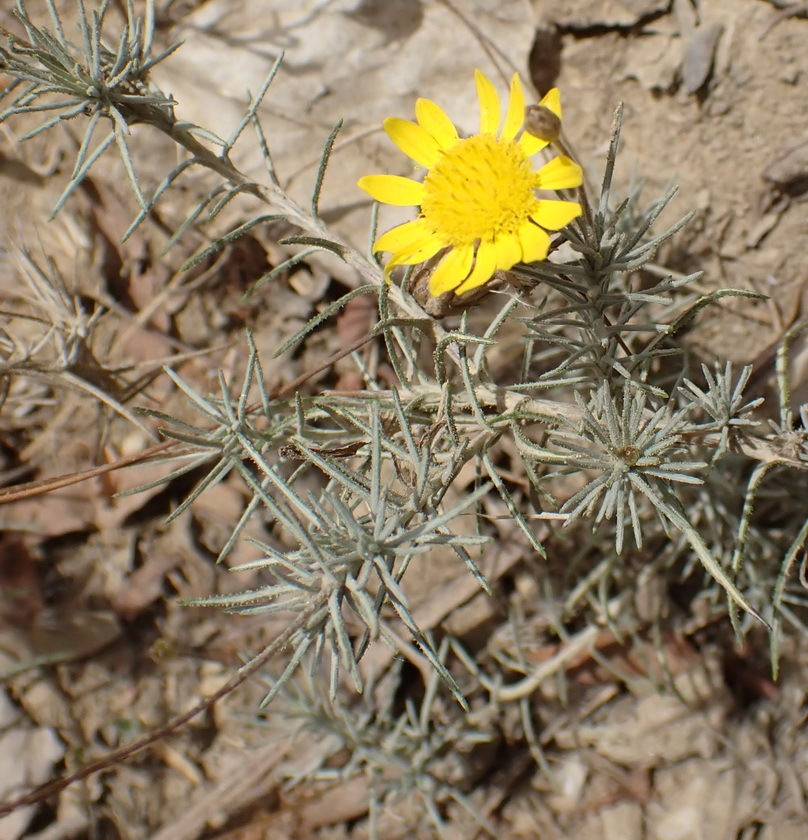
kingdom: Plantae
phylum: Tracheophyta
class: Magnoliopsida
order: Asterales
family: Asteraceae
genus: Leysera
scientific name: Leysera tenella
